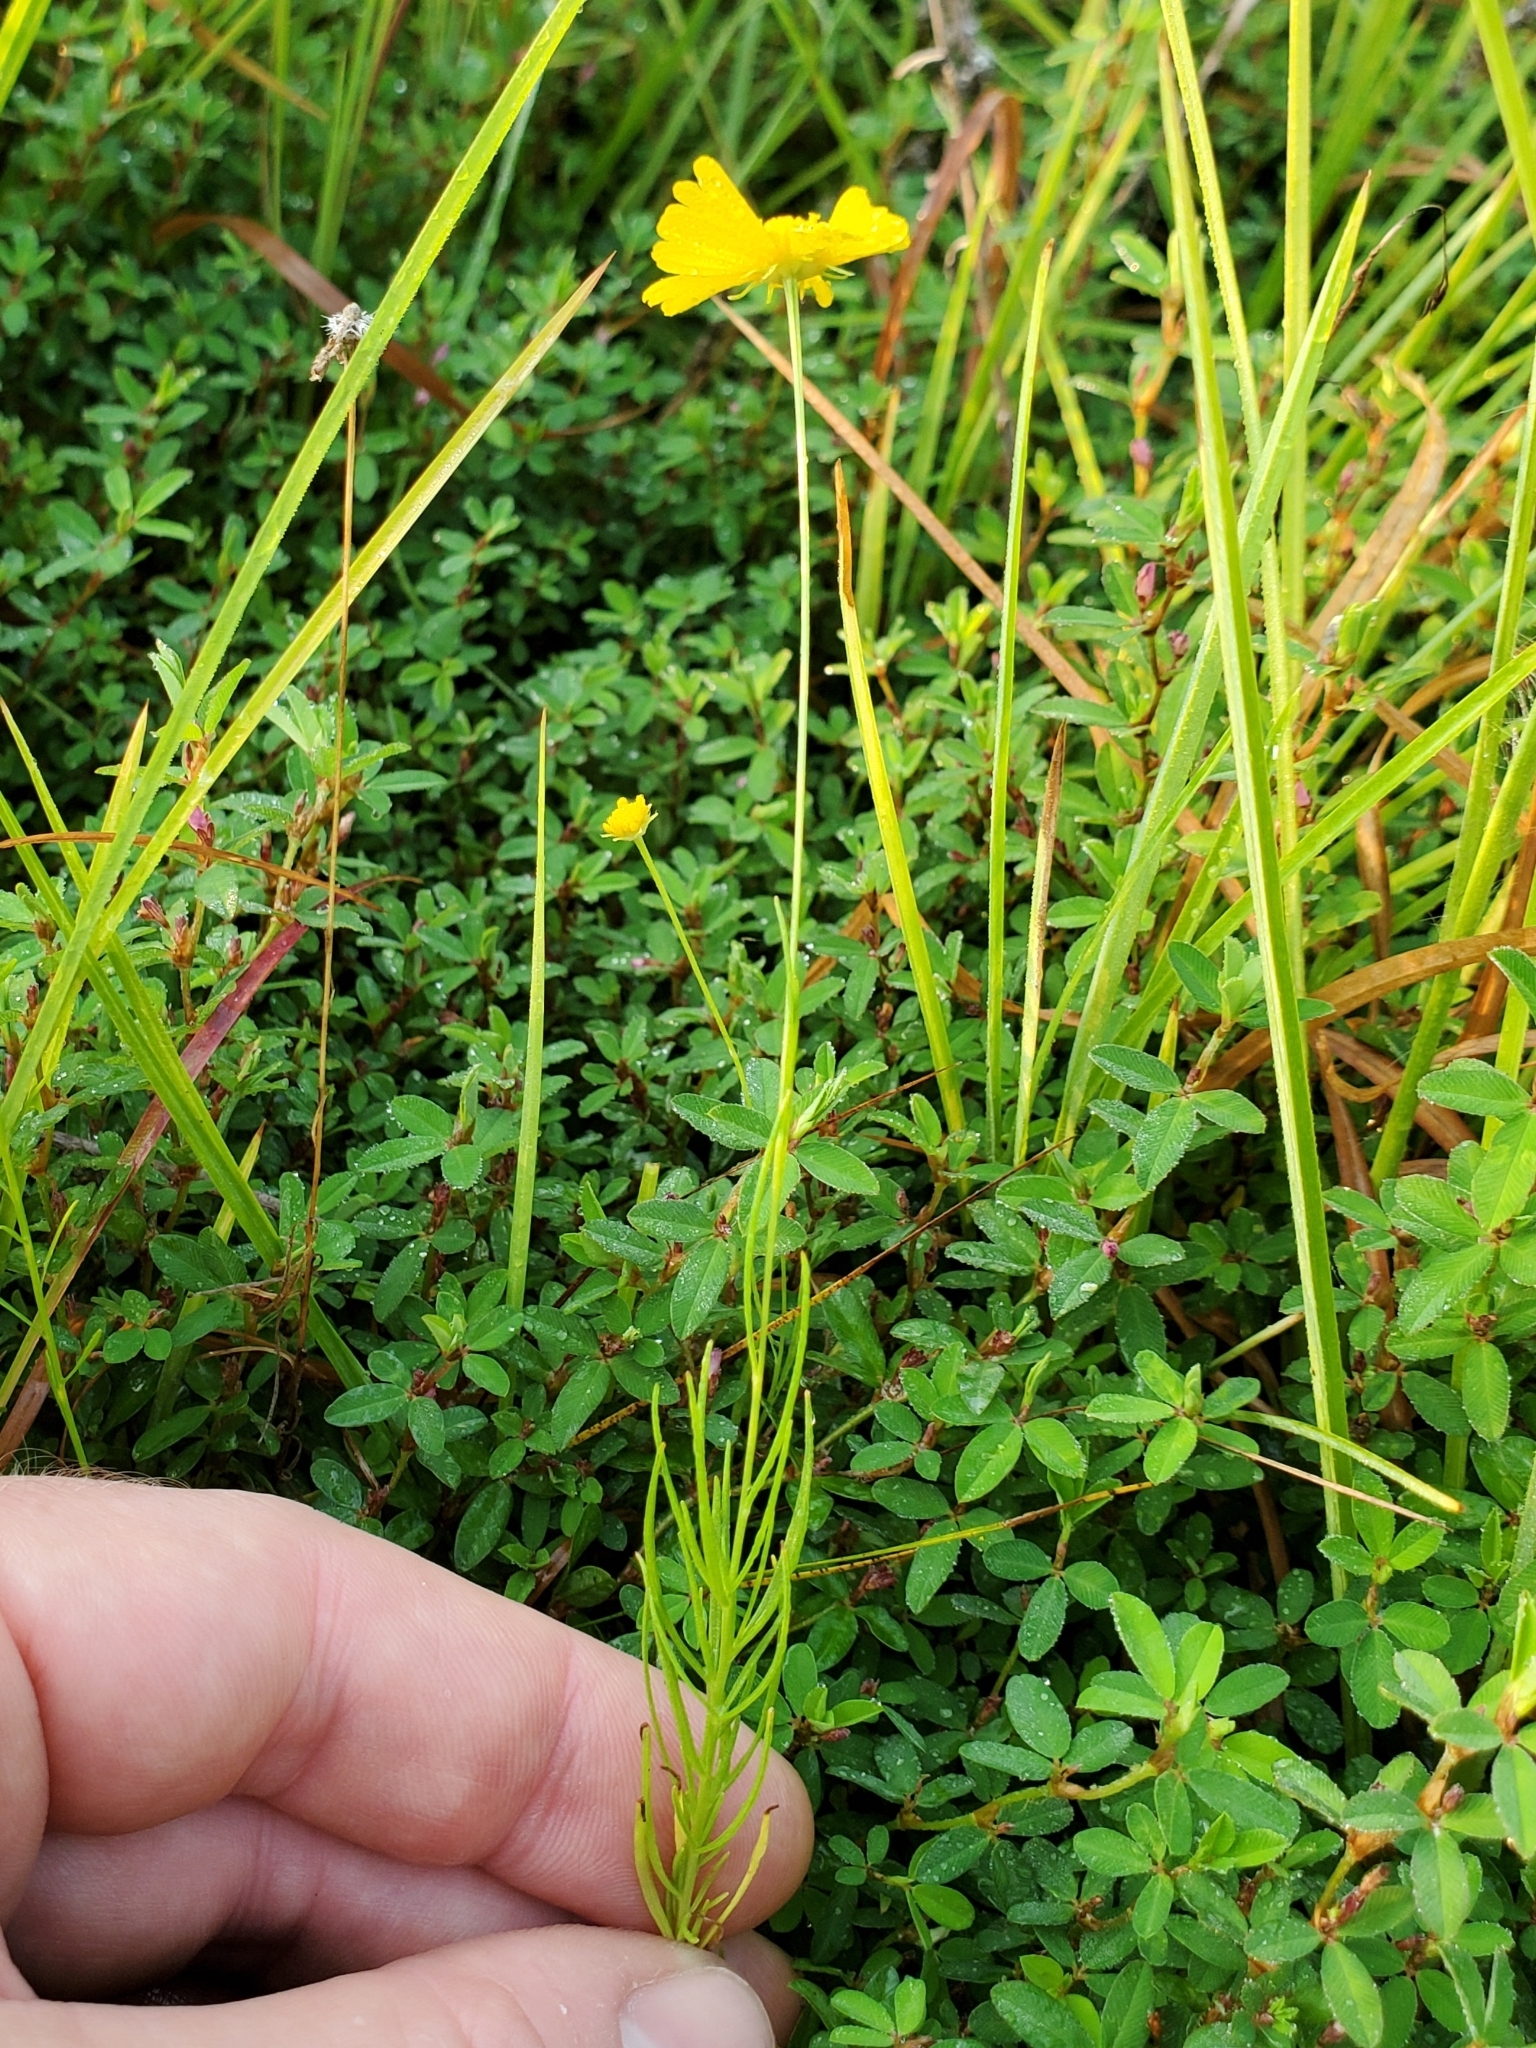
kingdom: Plantae
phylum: Tracheophyta
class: Magnoliopsida
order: Asterales
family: Asteraceae
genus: Helenium
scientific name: Helenium amarum
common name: Bitter sneezeweed
